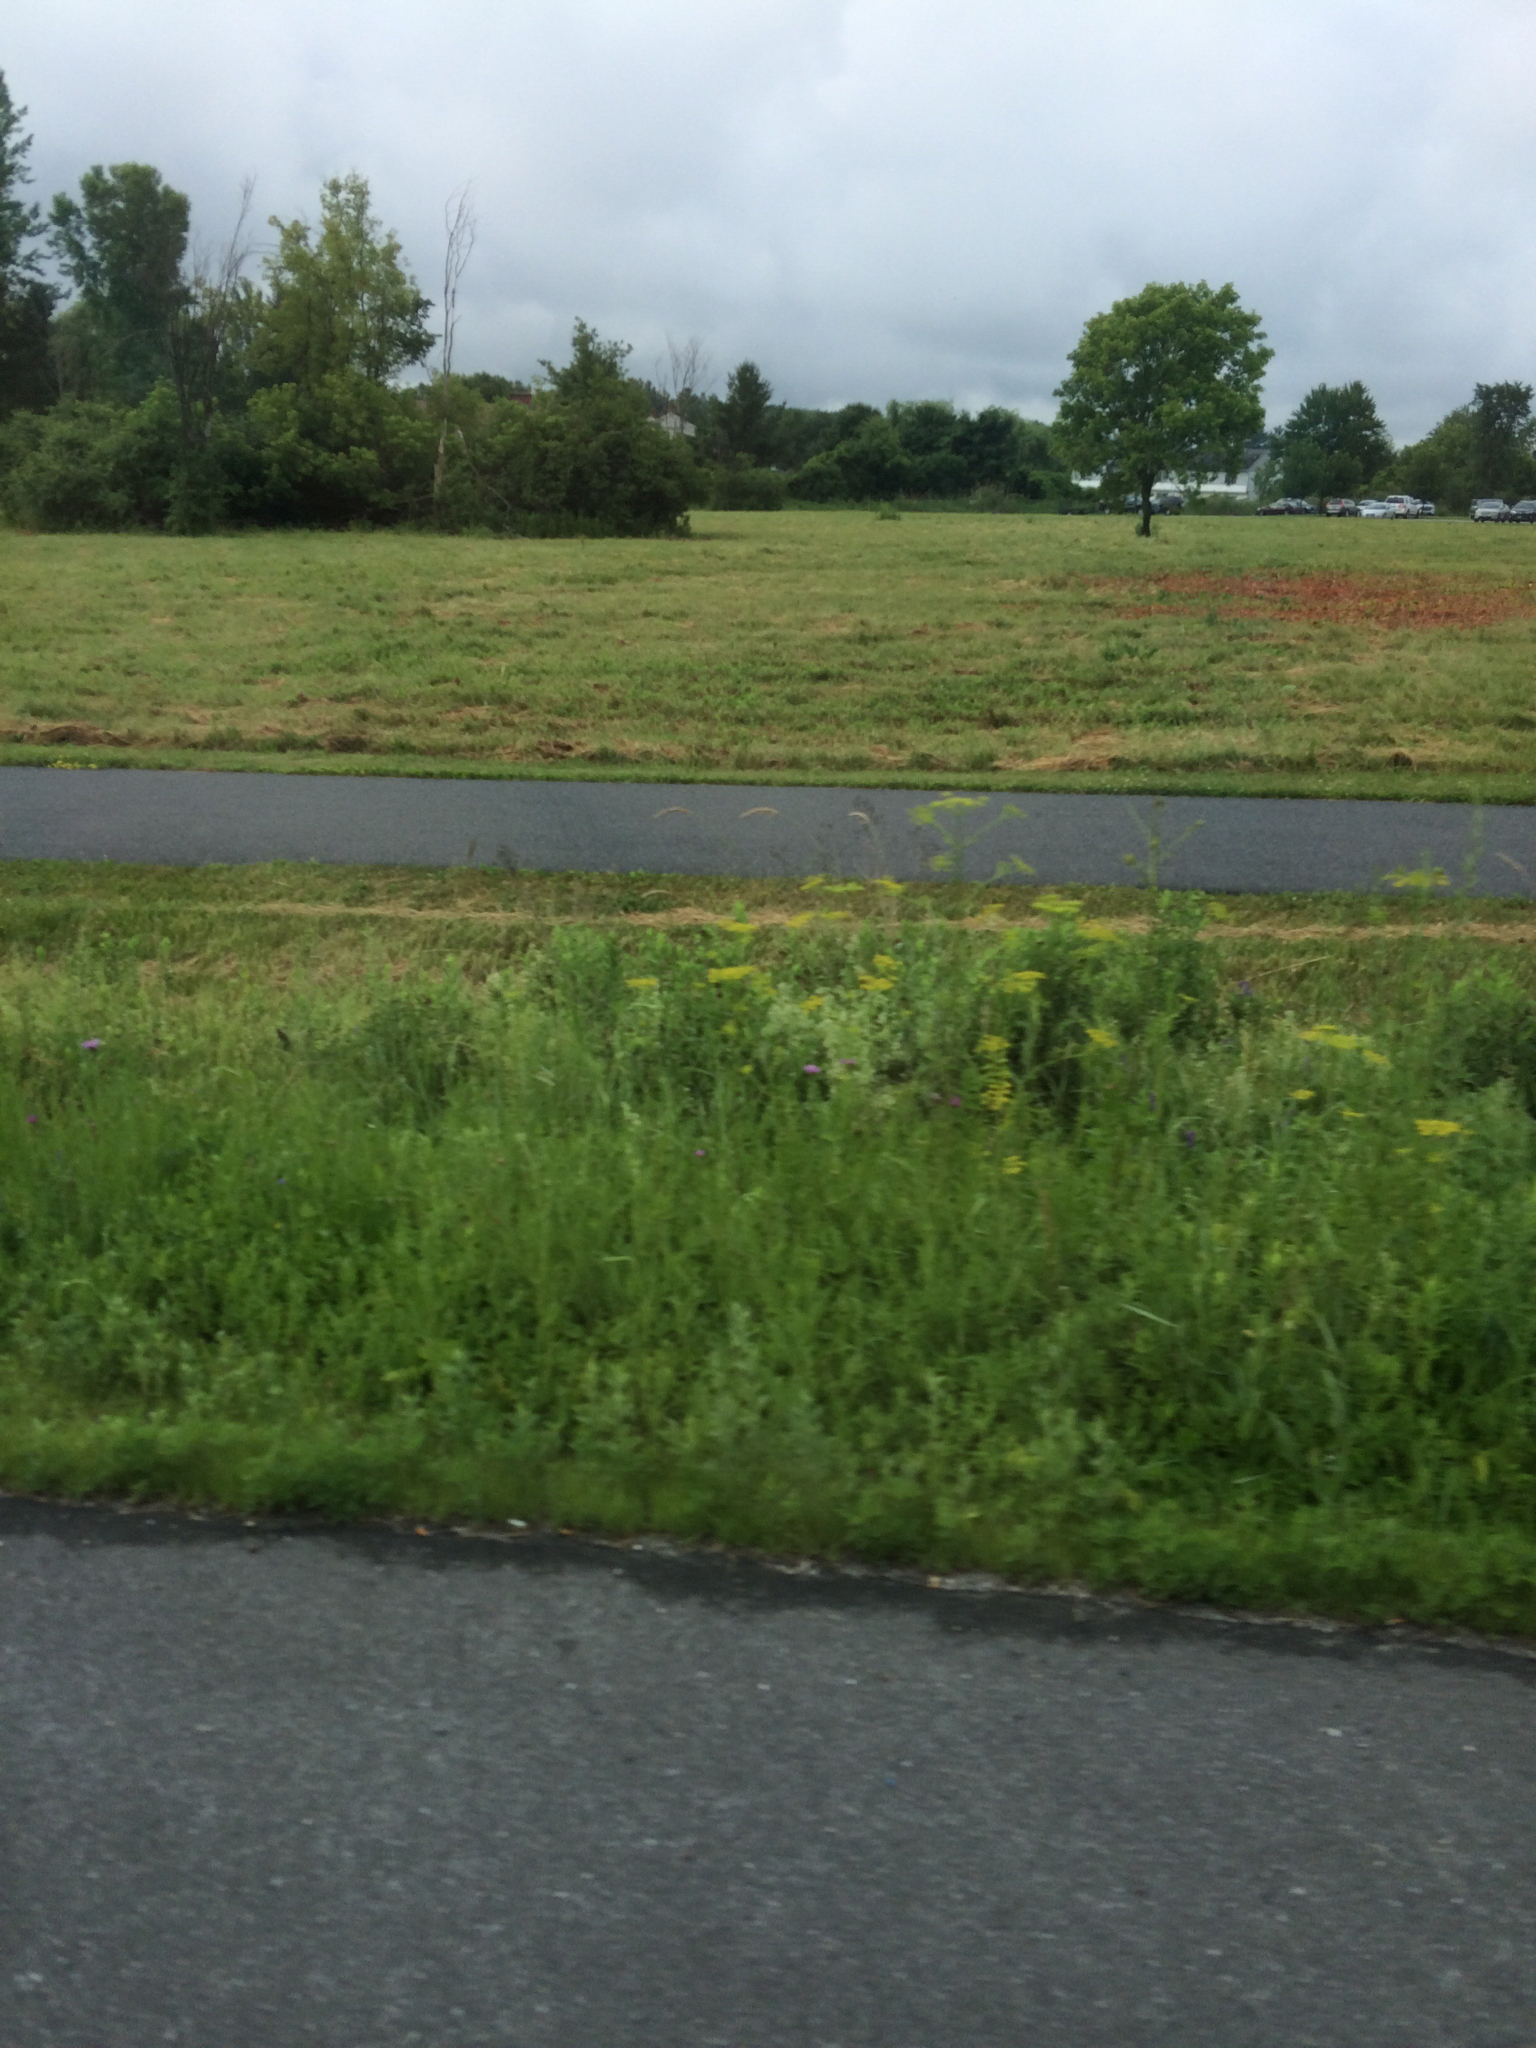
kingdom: Plantae
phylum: Tracheophyta
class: Magnoliopsida
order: Apiales
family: Apiaceae
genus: Pastinaca
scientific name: Pastinaca sativa
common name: Wild parsnip
